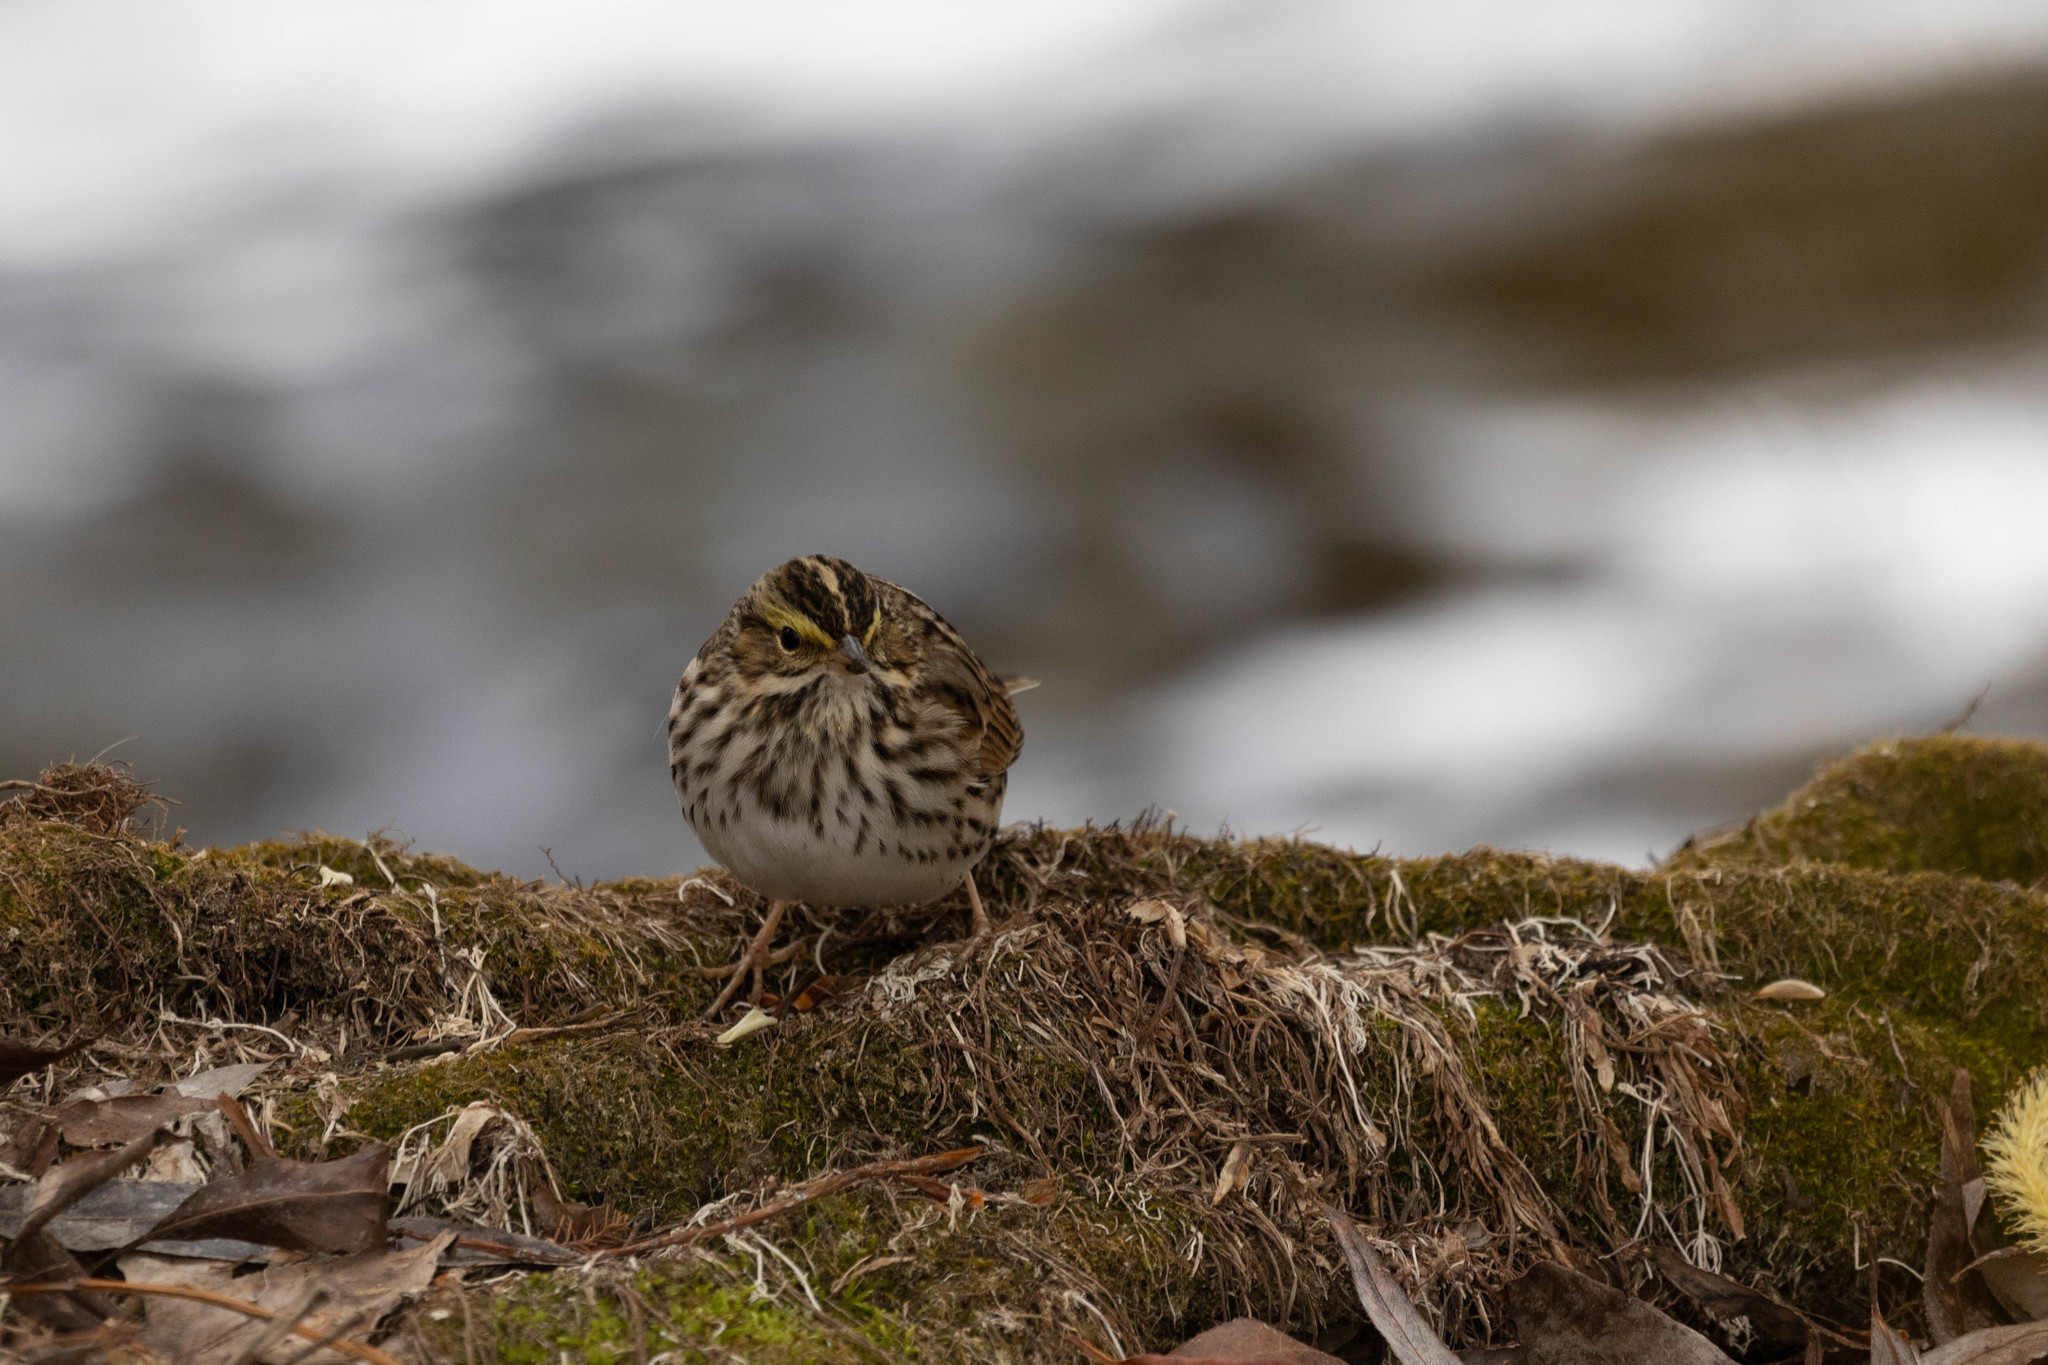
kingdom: Animalia
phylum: Chordata
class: Aves
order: Passeriformes
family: Passerellidae
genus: Passerculus
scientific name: Passerculus sandwichensis
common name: Savannah sparrow
